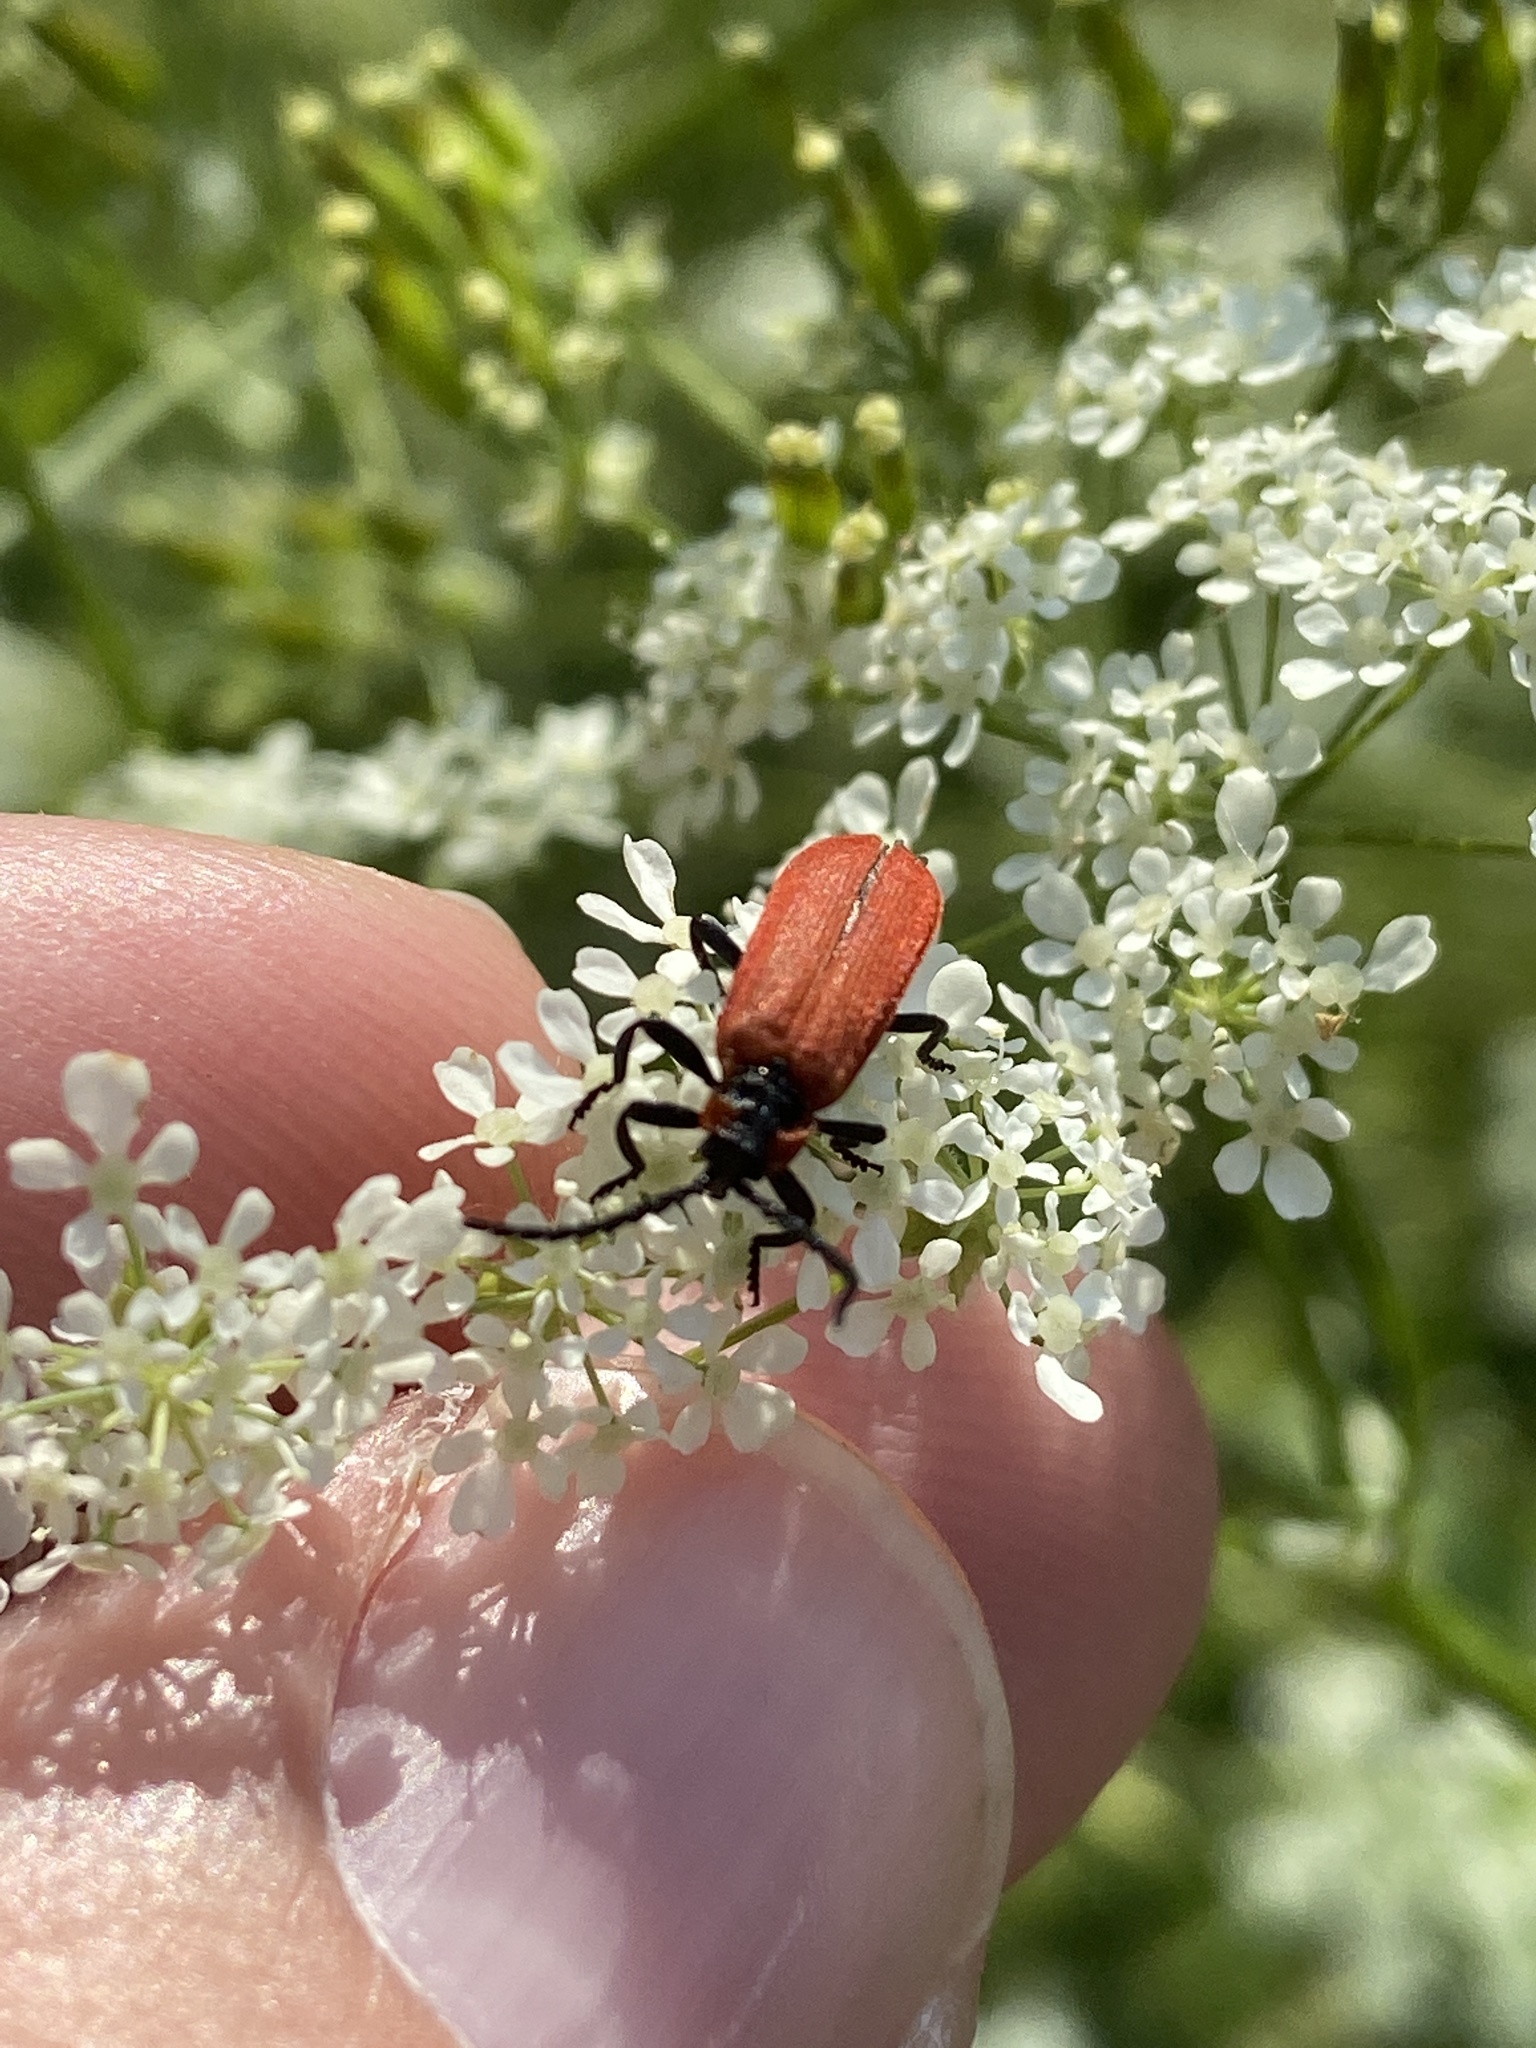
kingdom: Animalia
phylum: Arthropoda
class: Insecta
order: Coleoptera
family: Lycidae
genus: Lygistopterus
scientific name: Lygistopterus sanguineus
